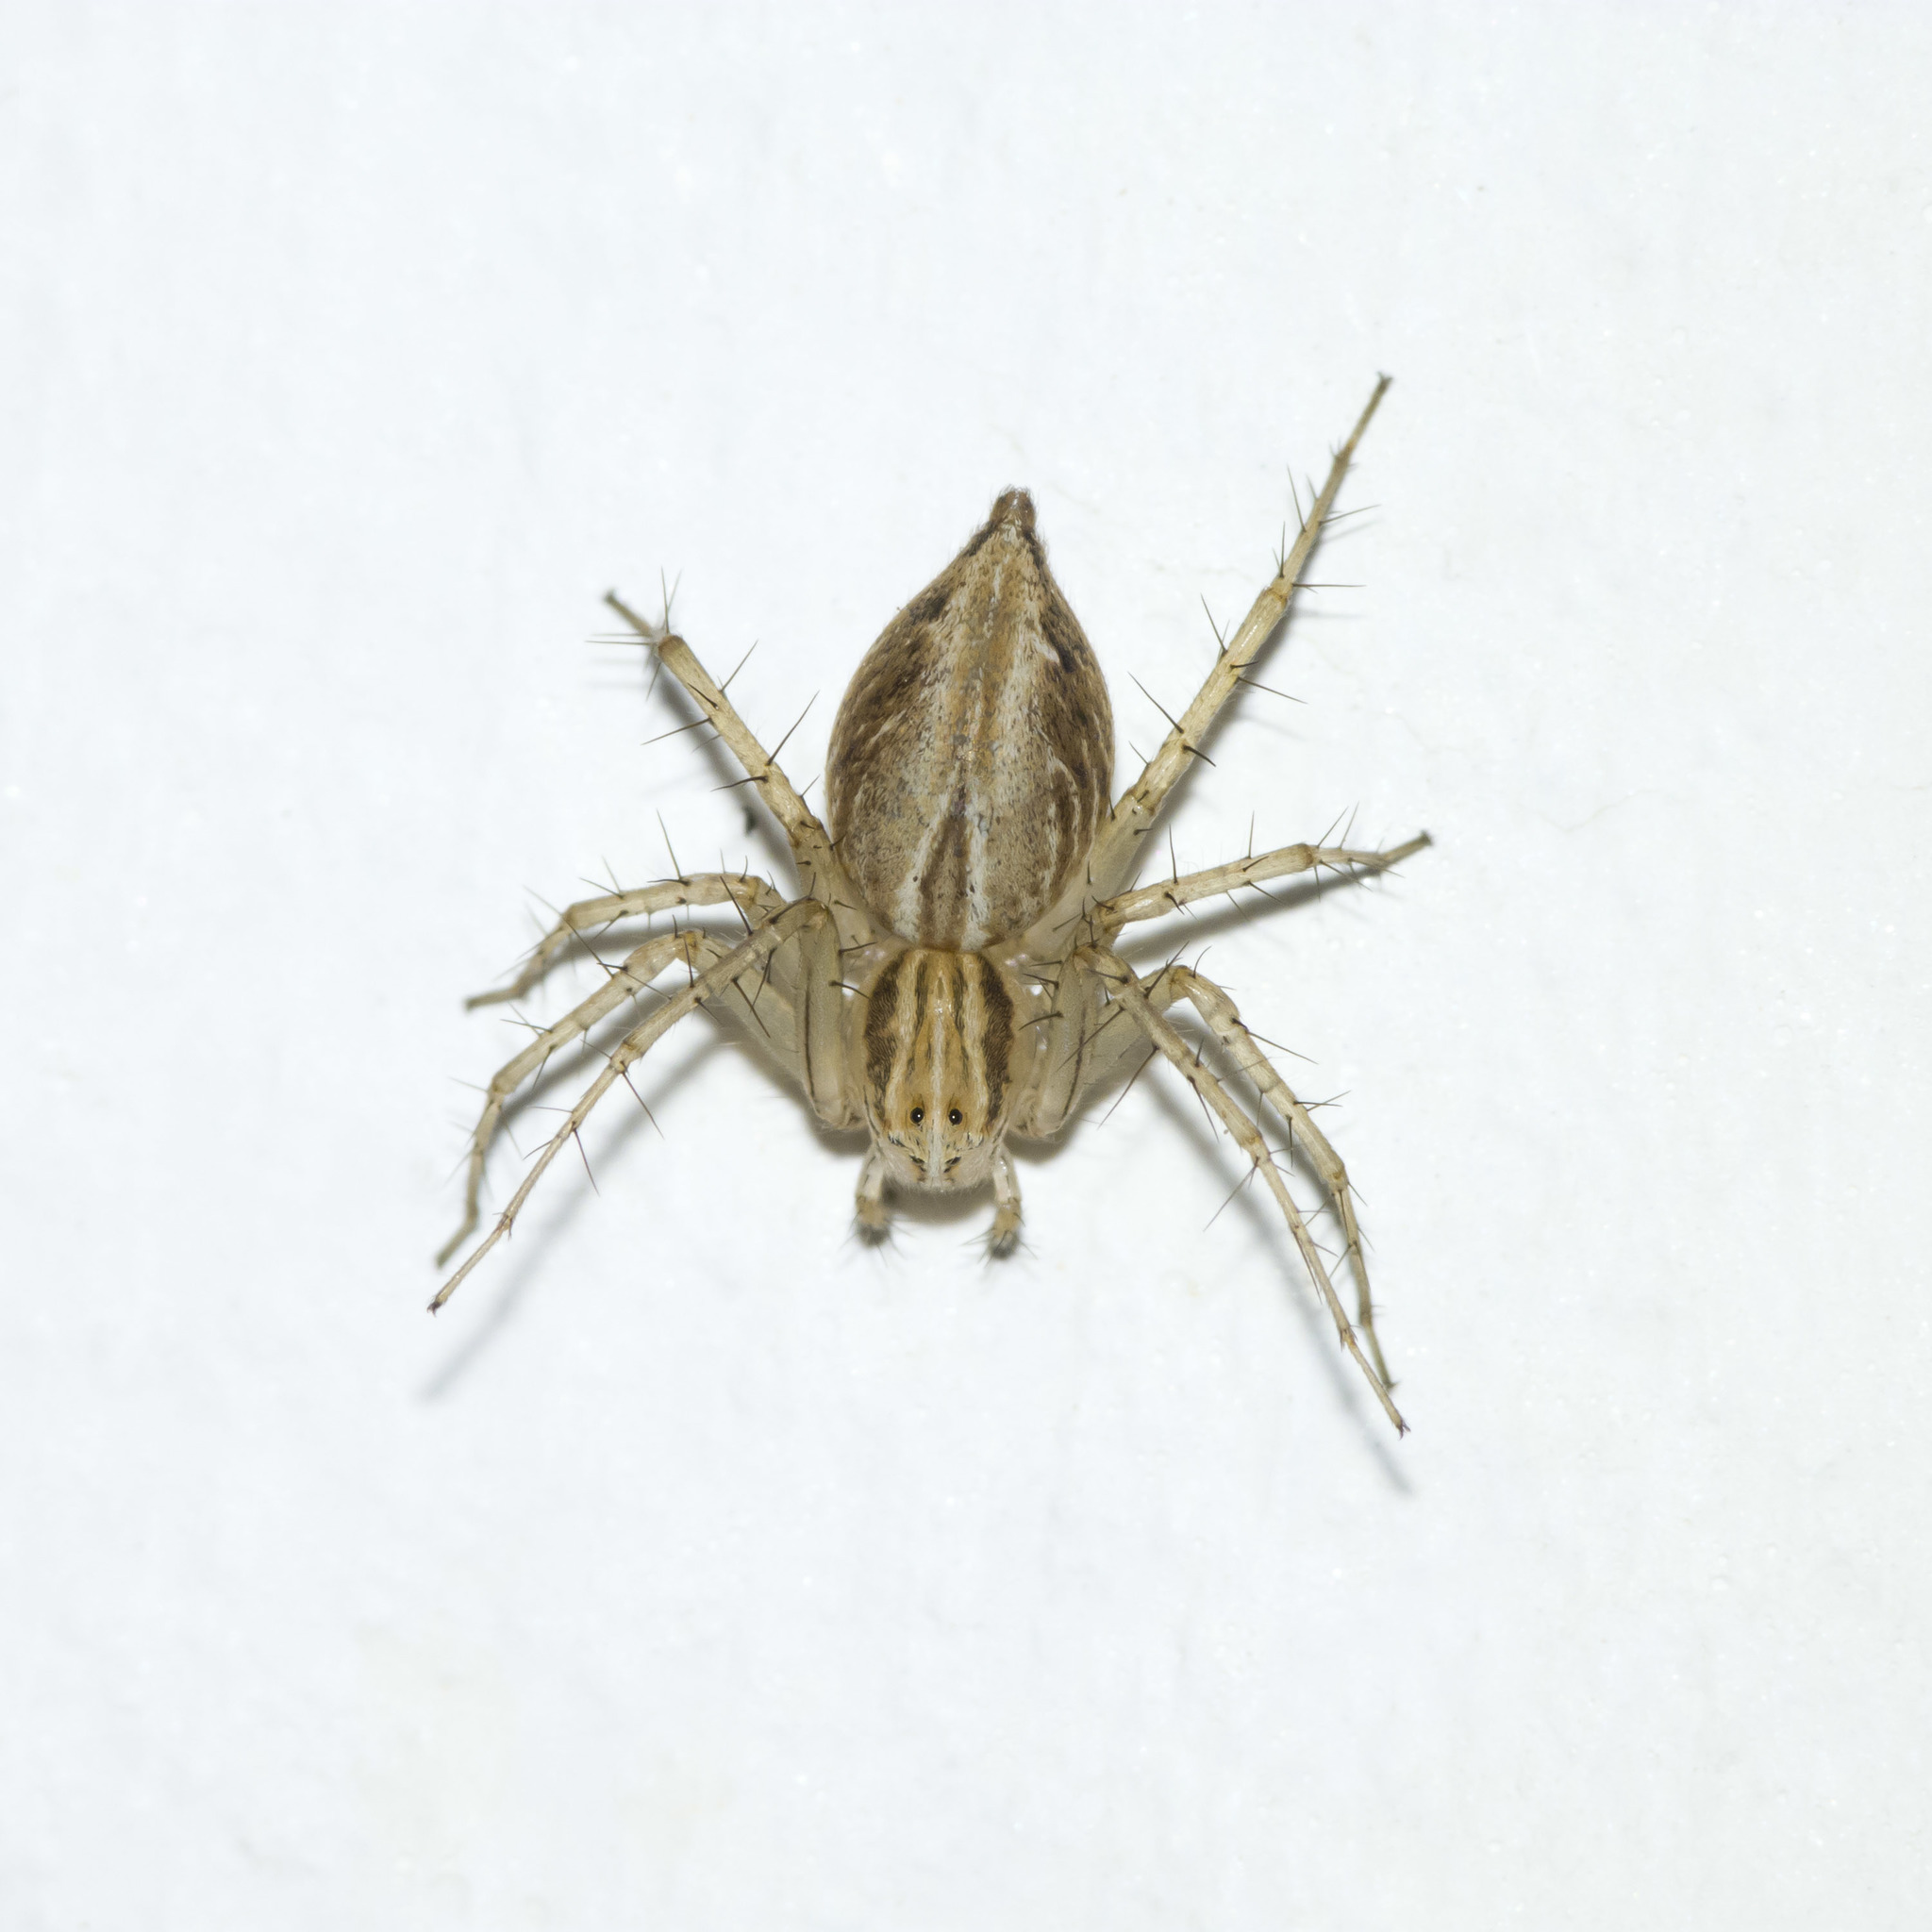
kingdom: Animalia
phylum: Arthropoda
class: Arachnida
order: Araneae
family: Oxyopidae
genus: Oxyopes
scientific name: Oxyopes salticus
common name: Lynx spiders
